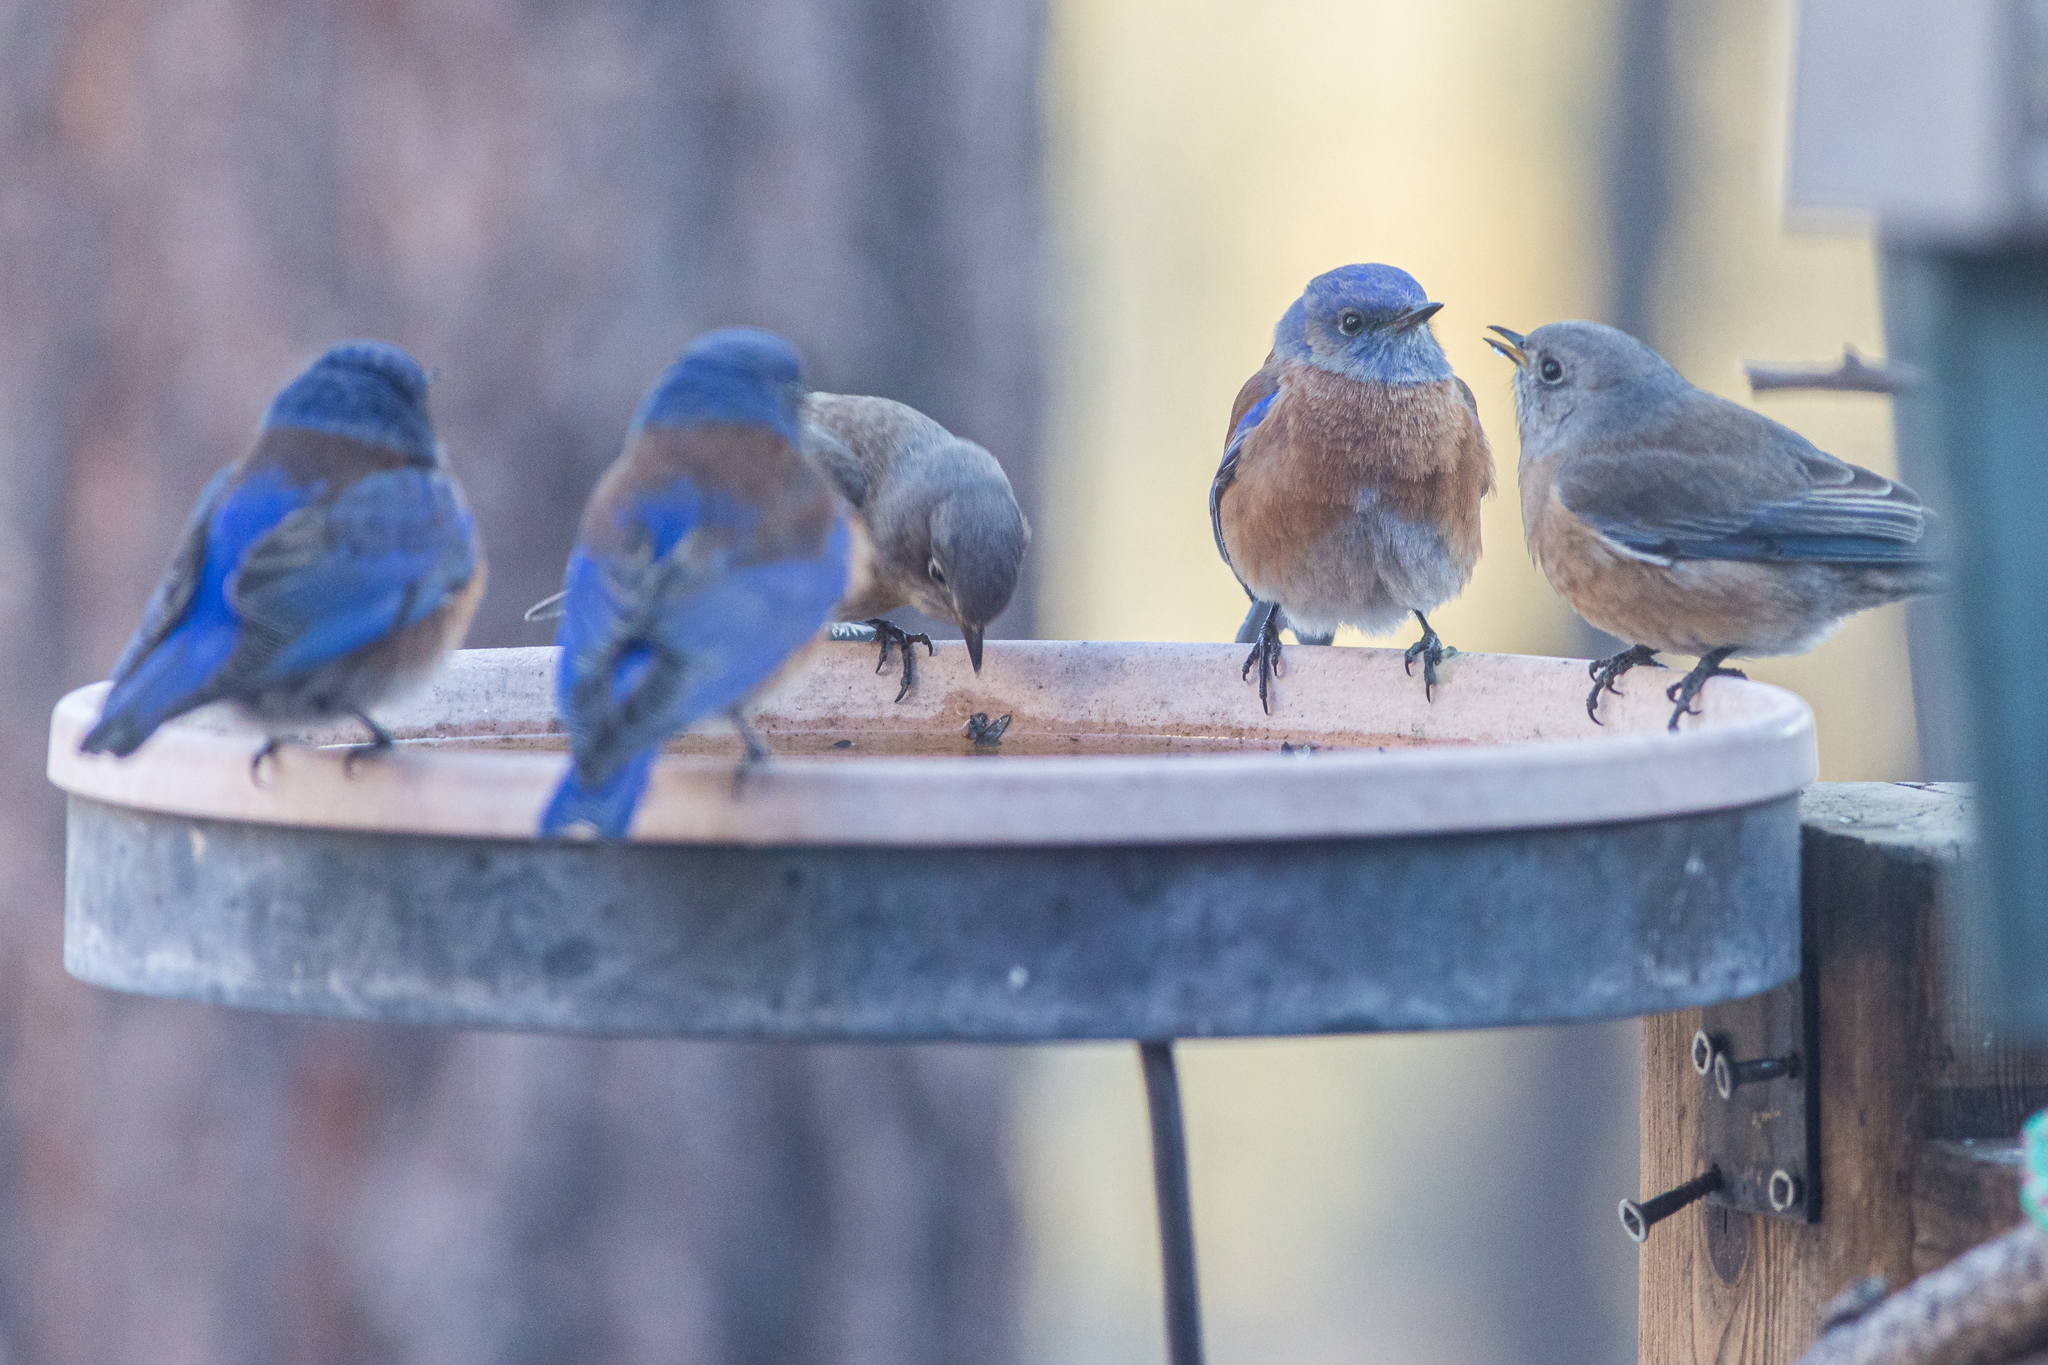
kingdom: Animalia
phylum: Chordata
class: Aves
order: Passeriformes
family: Turdidae
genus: Sialia
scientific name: Sialia mexicana
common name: Western bluebird
